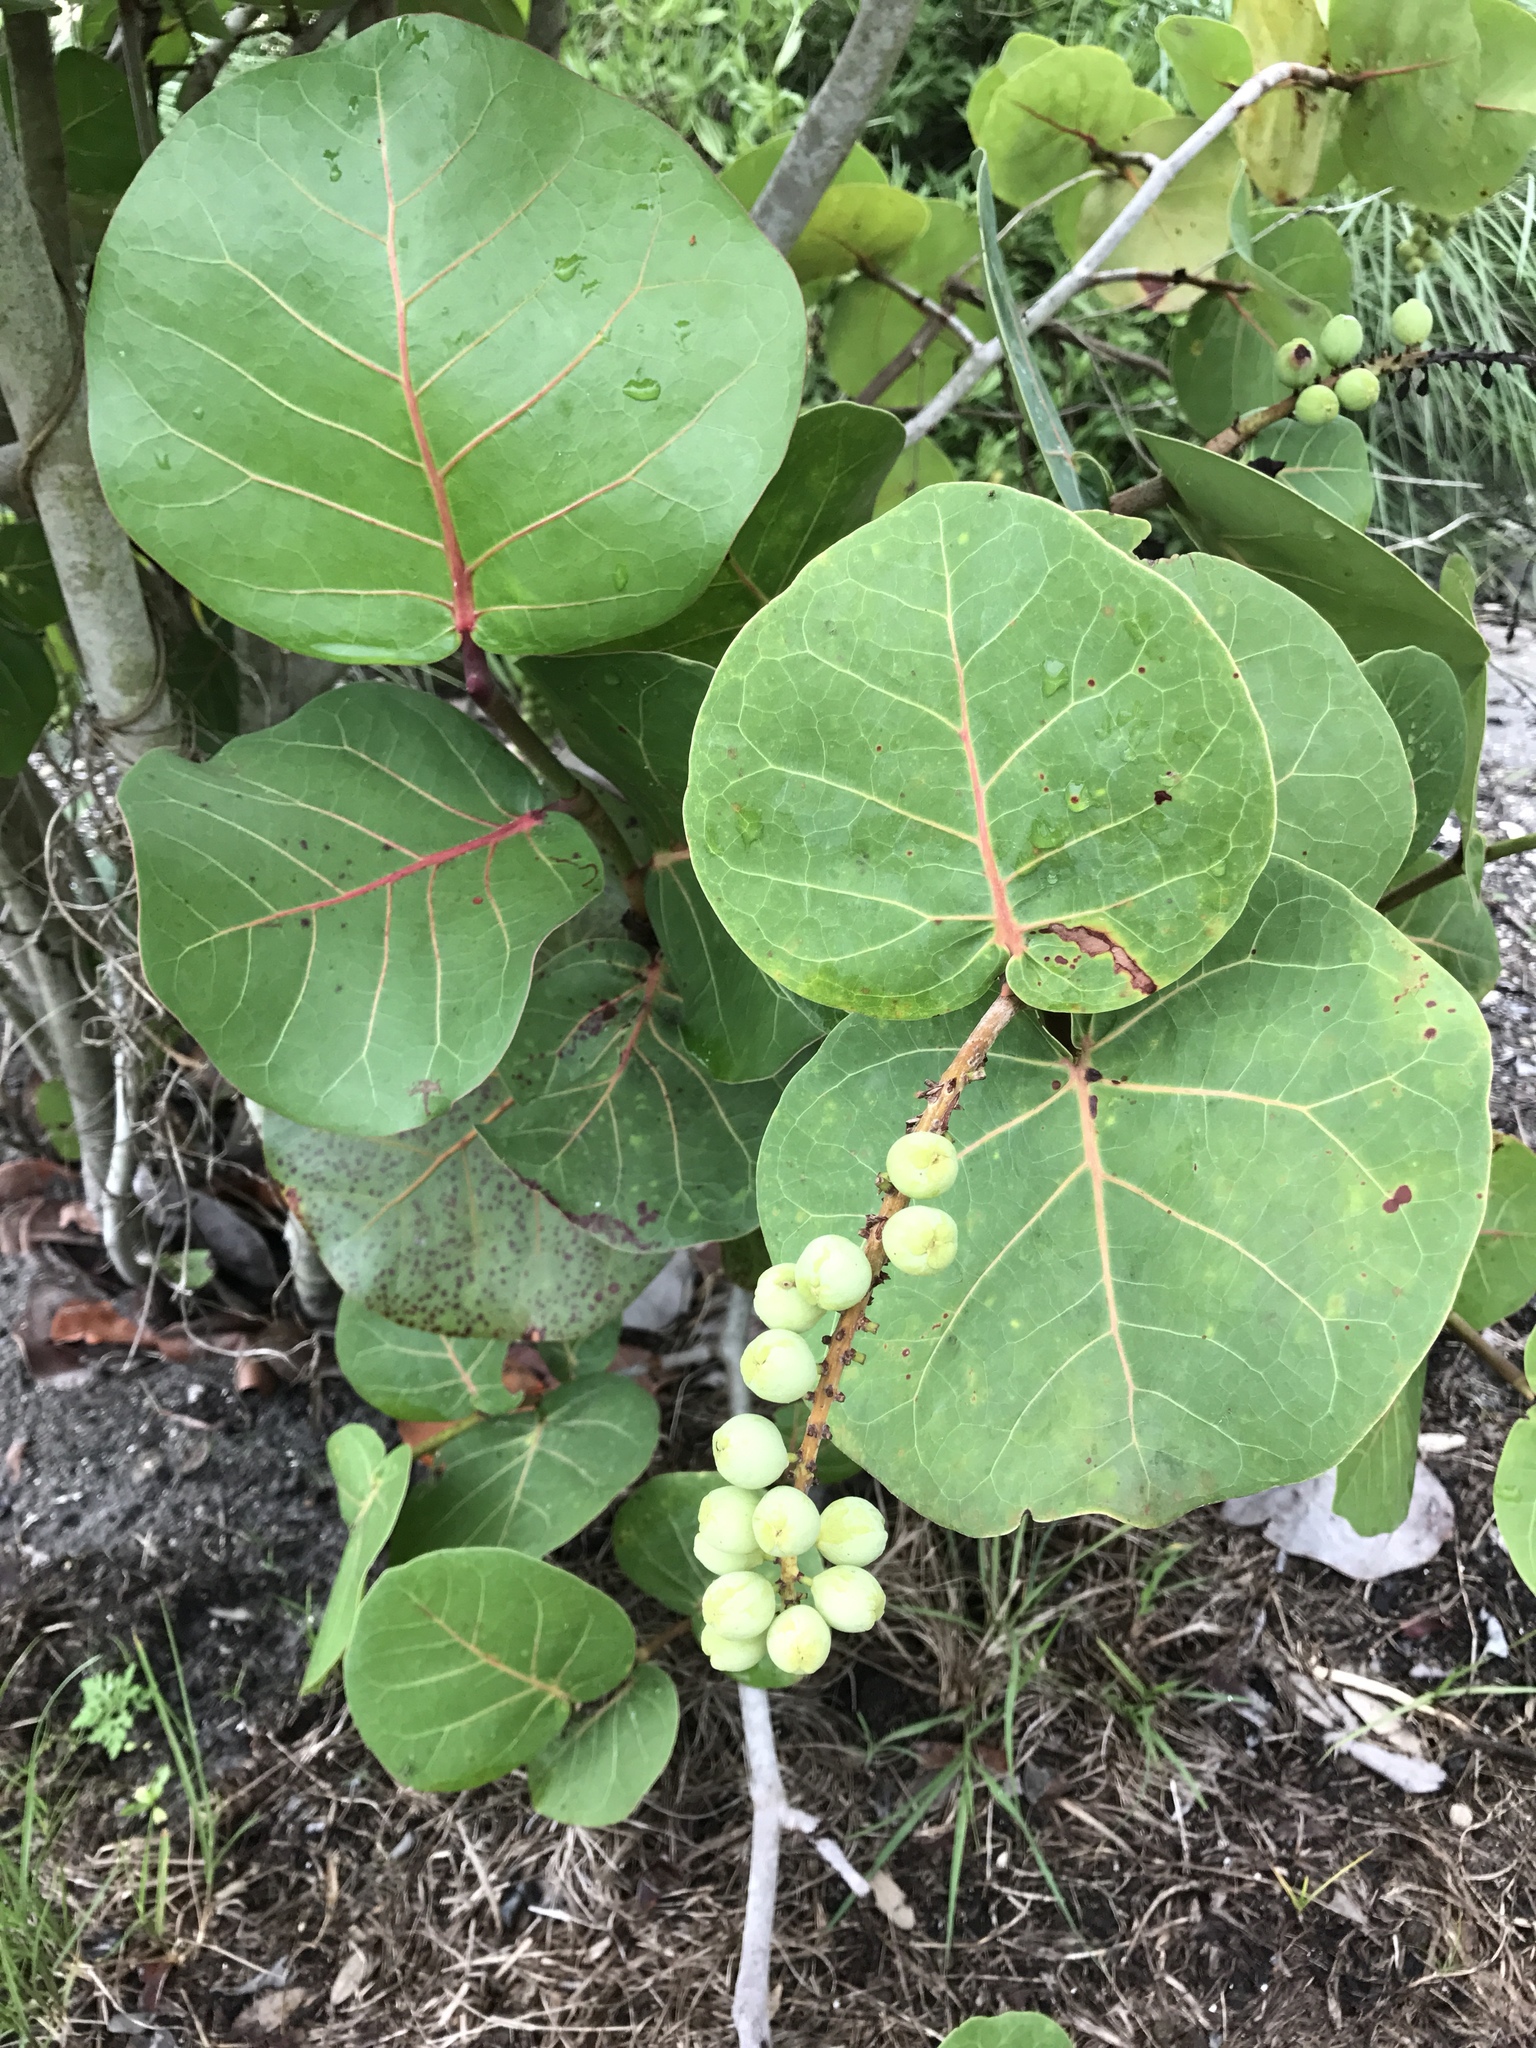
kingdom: Plantae
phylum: Tracheophyta
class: Magnoliopsida
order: Caryophyllales
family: Polygonaceae
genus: Coccoloba
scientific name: Coccoloba uvifera
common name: Seagrape
